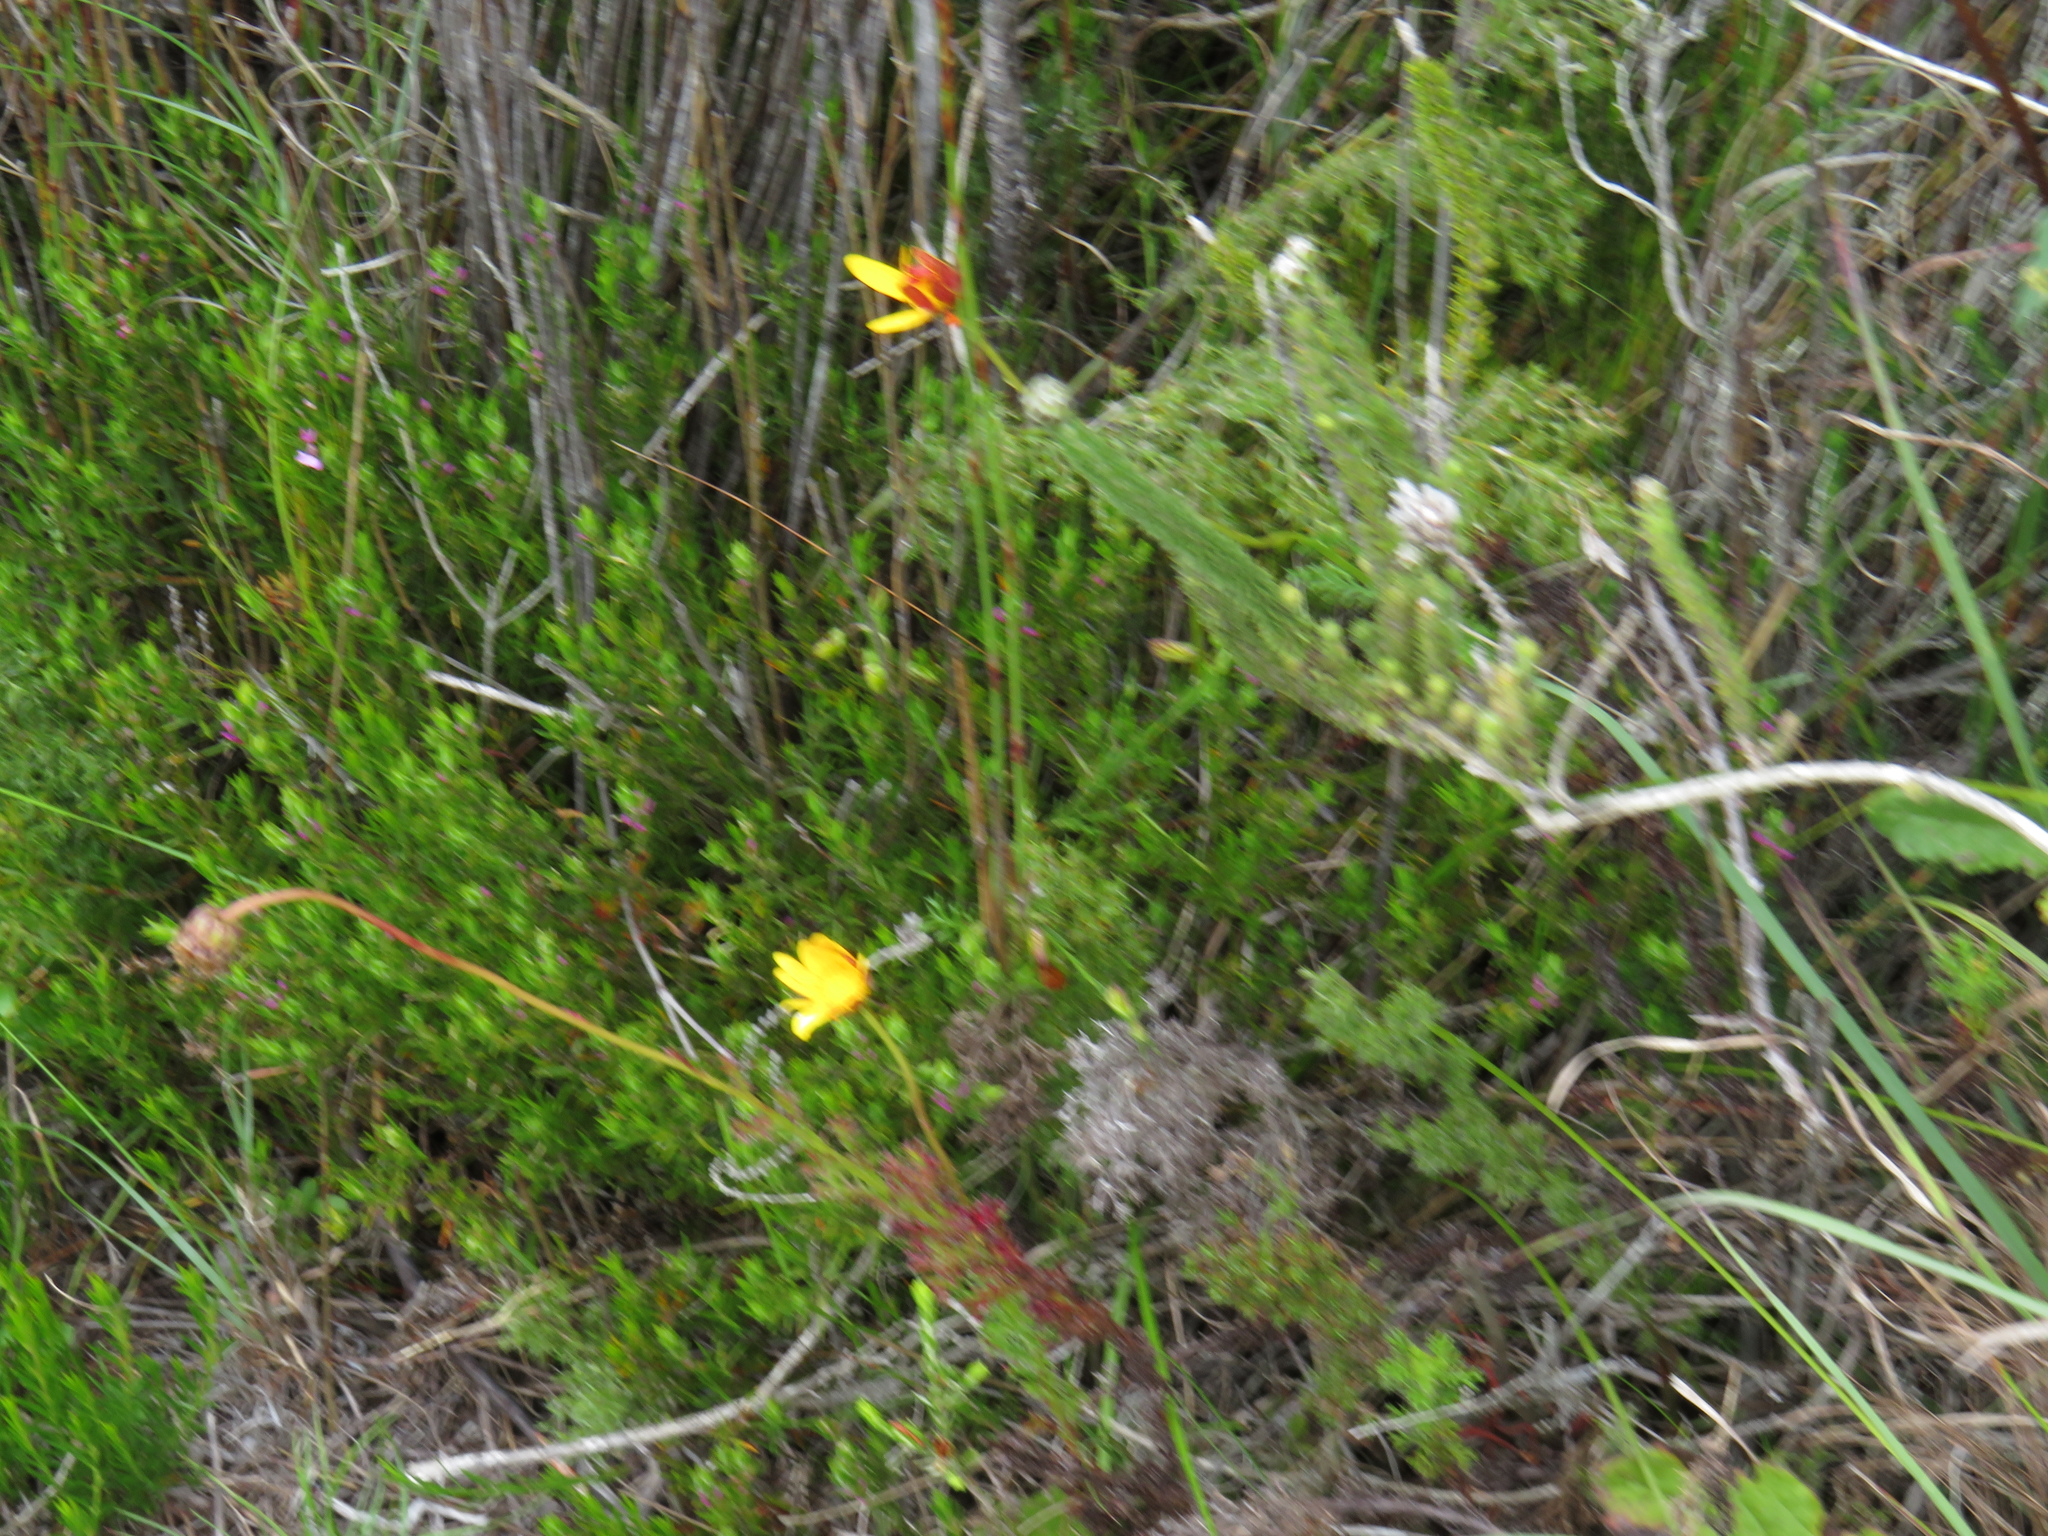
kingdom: Plantae
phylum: Tracheophyta
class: Magnoliopsida
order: Asterales
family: Asteraceae
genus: Ursinia
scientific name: Ursinia dentata
